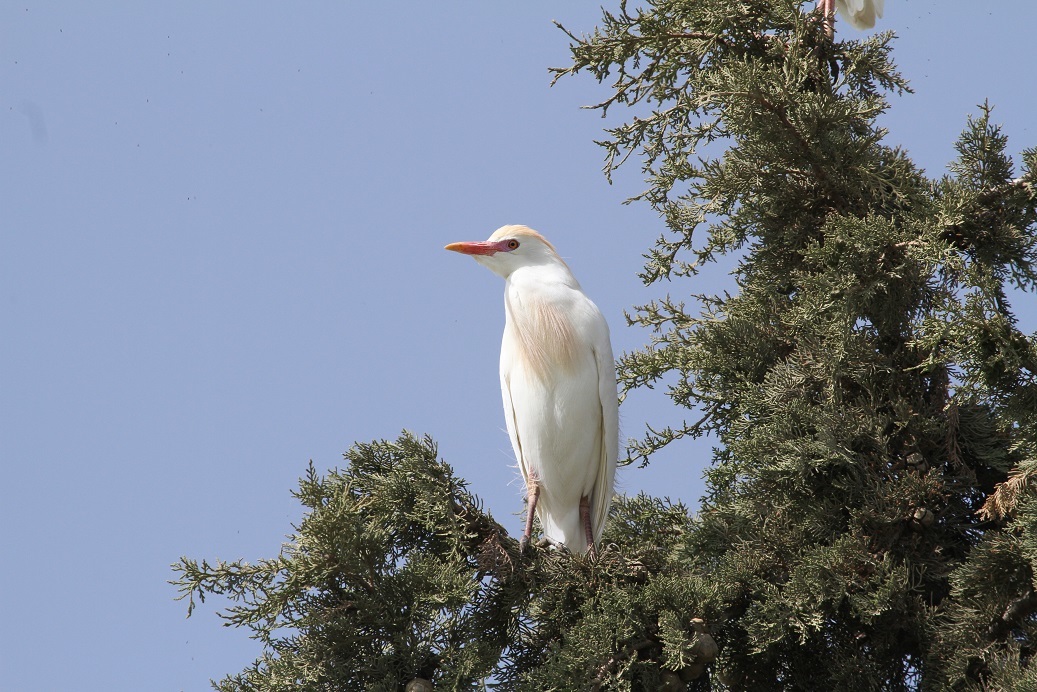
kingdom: Animalia
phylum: Chordata
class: Aves
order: Pelecaniformes
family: Ardeidae
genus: Bubulcus
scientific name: Bubulcus ibis
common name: Cattle egret
